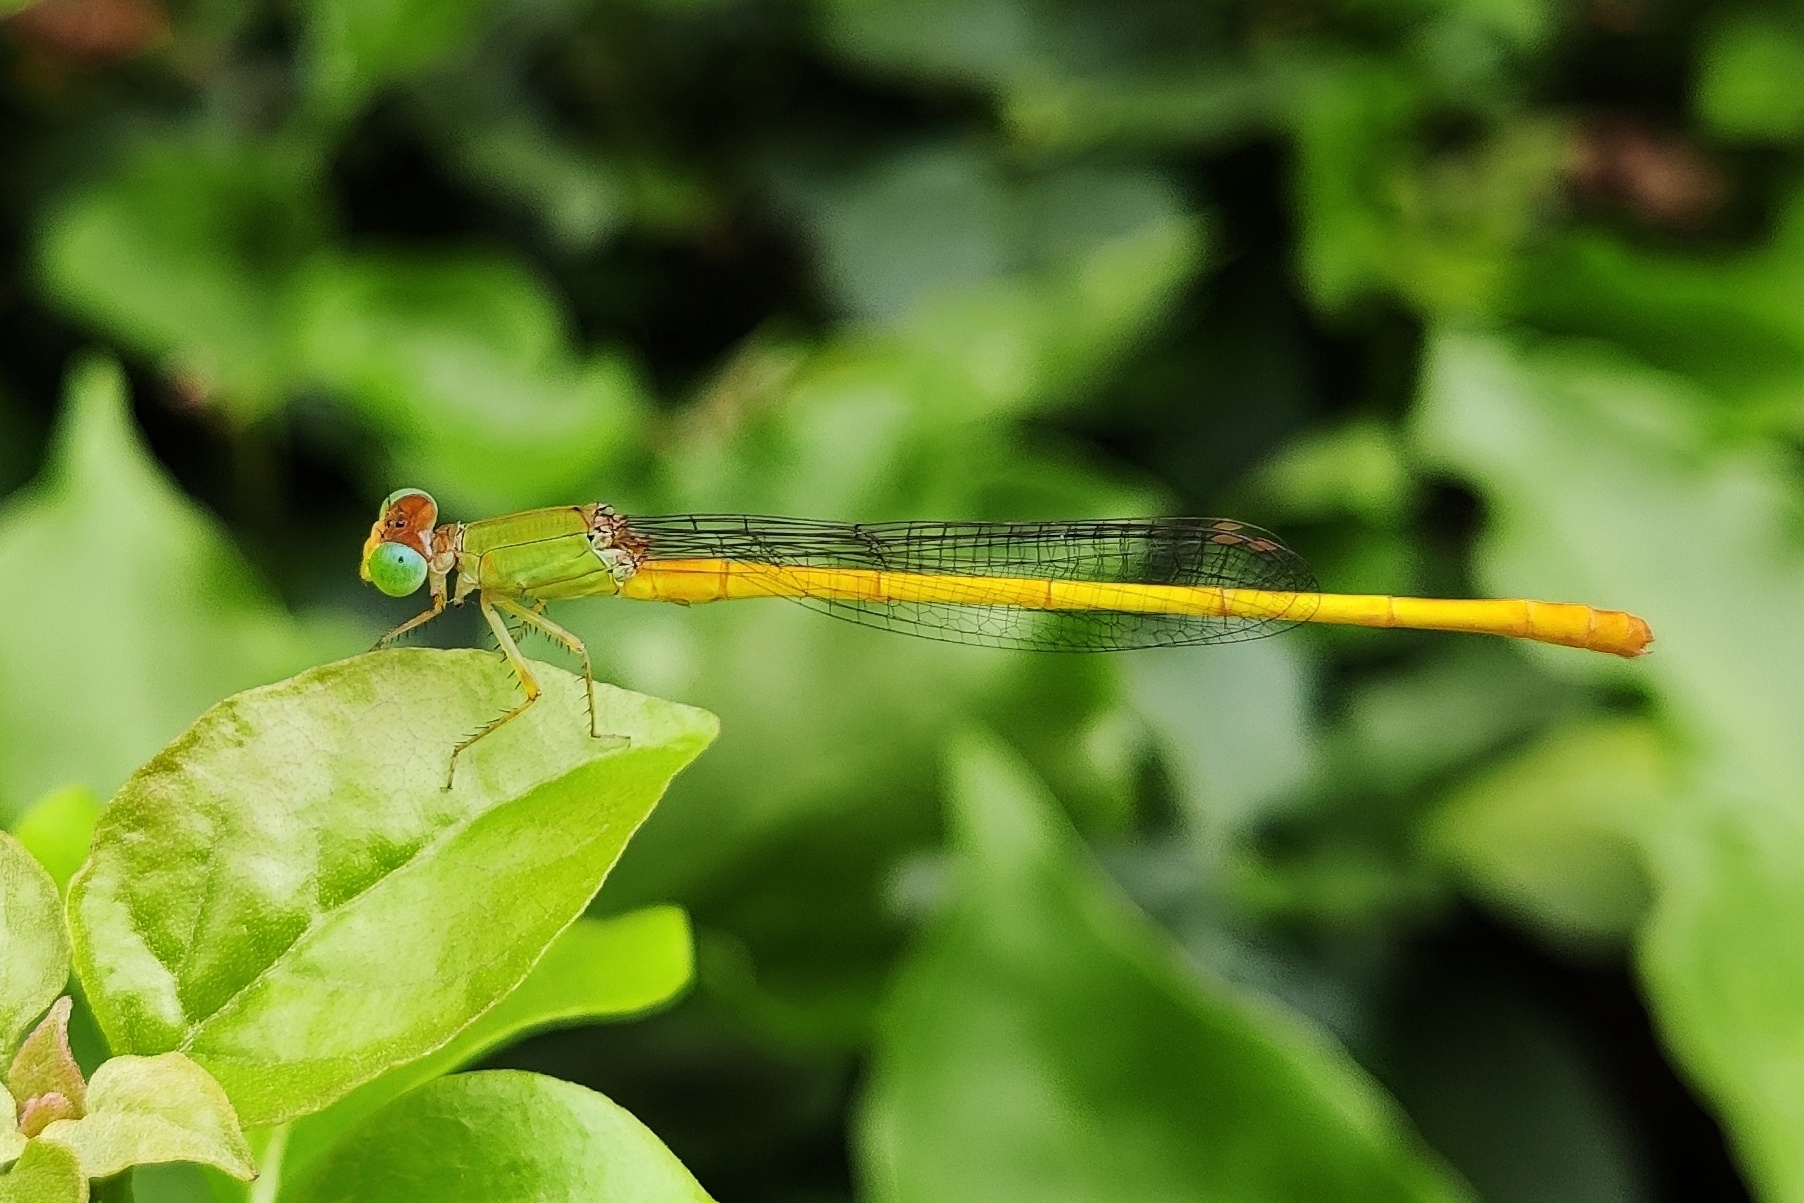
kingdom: Animalia
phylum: Arthropoda
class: Insecta
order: Odonata
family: Coenagrionidae
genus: Ceriagrion
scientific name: Ceriagrion coromandelianum
